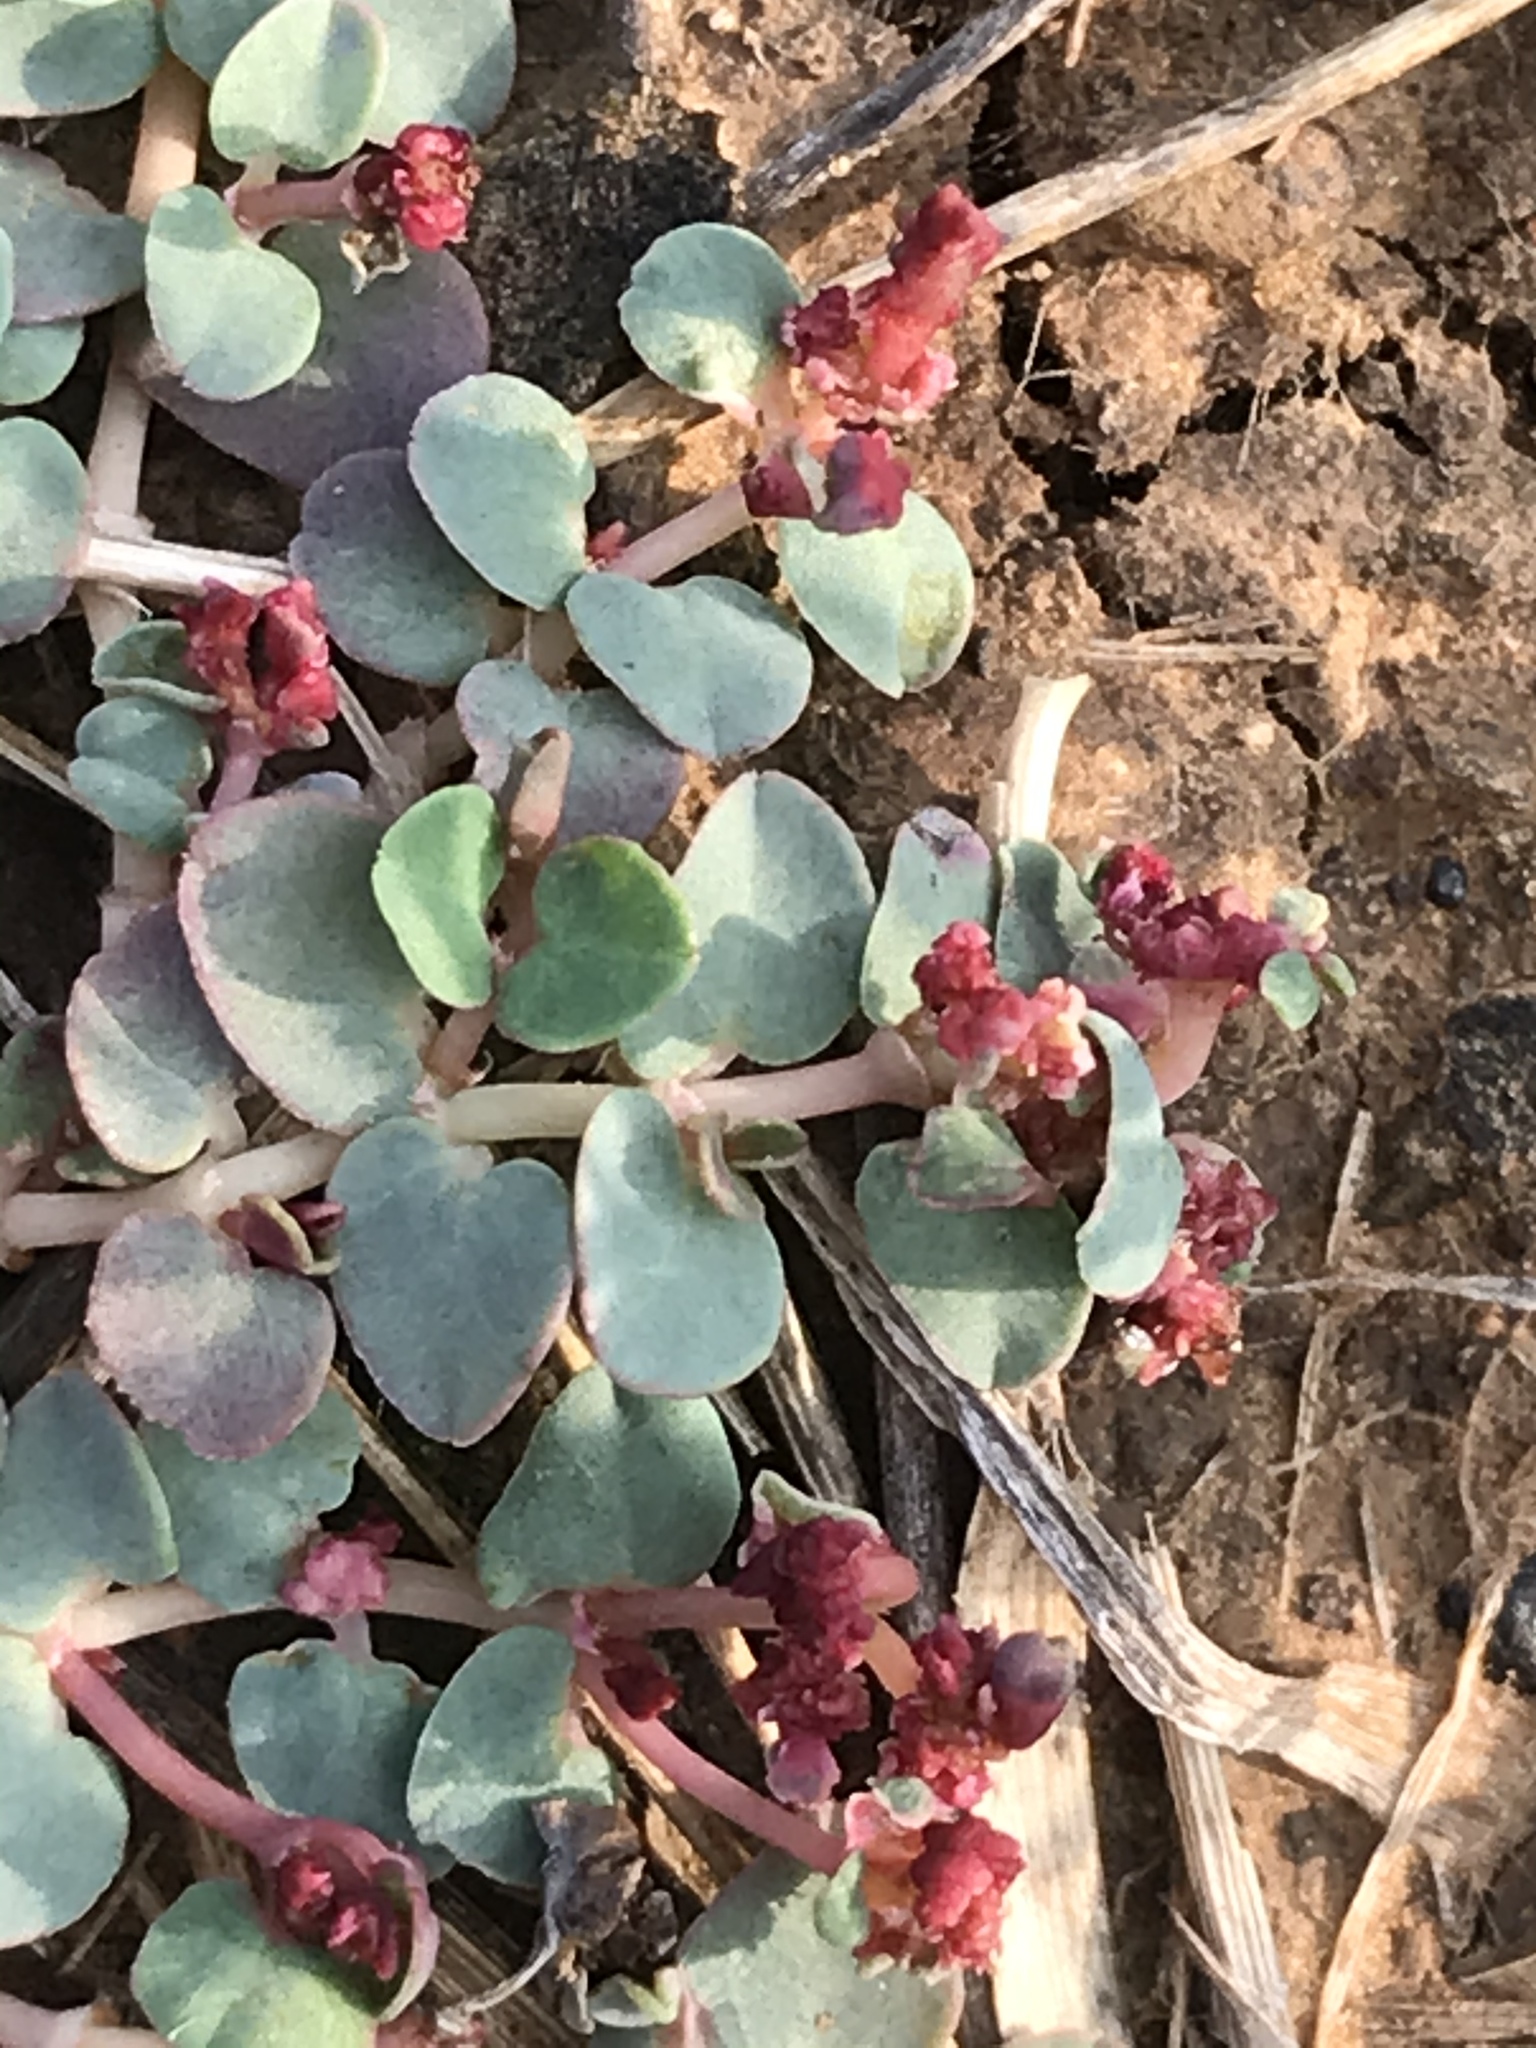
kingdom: Plantae
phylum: Tracheophyta
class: Magnoliopsida
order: Malpighiales
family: Euphorbiaceae
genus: Euphorbia
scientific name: Euphorbia serpens
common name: Matted sandmat
